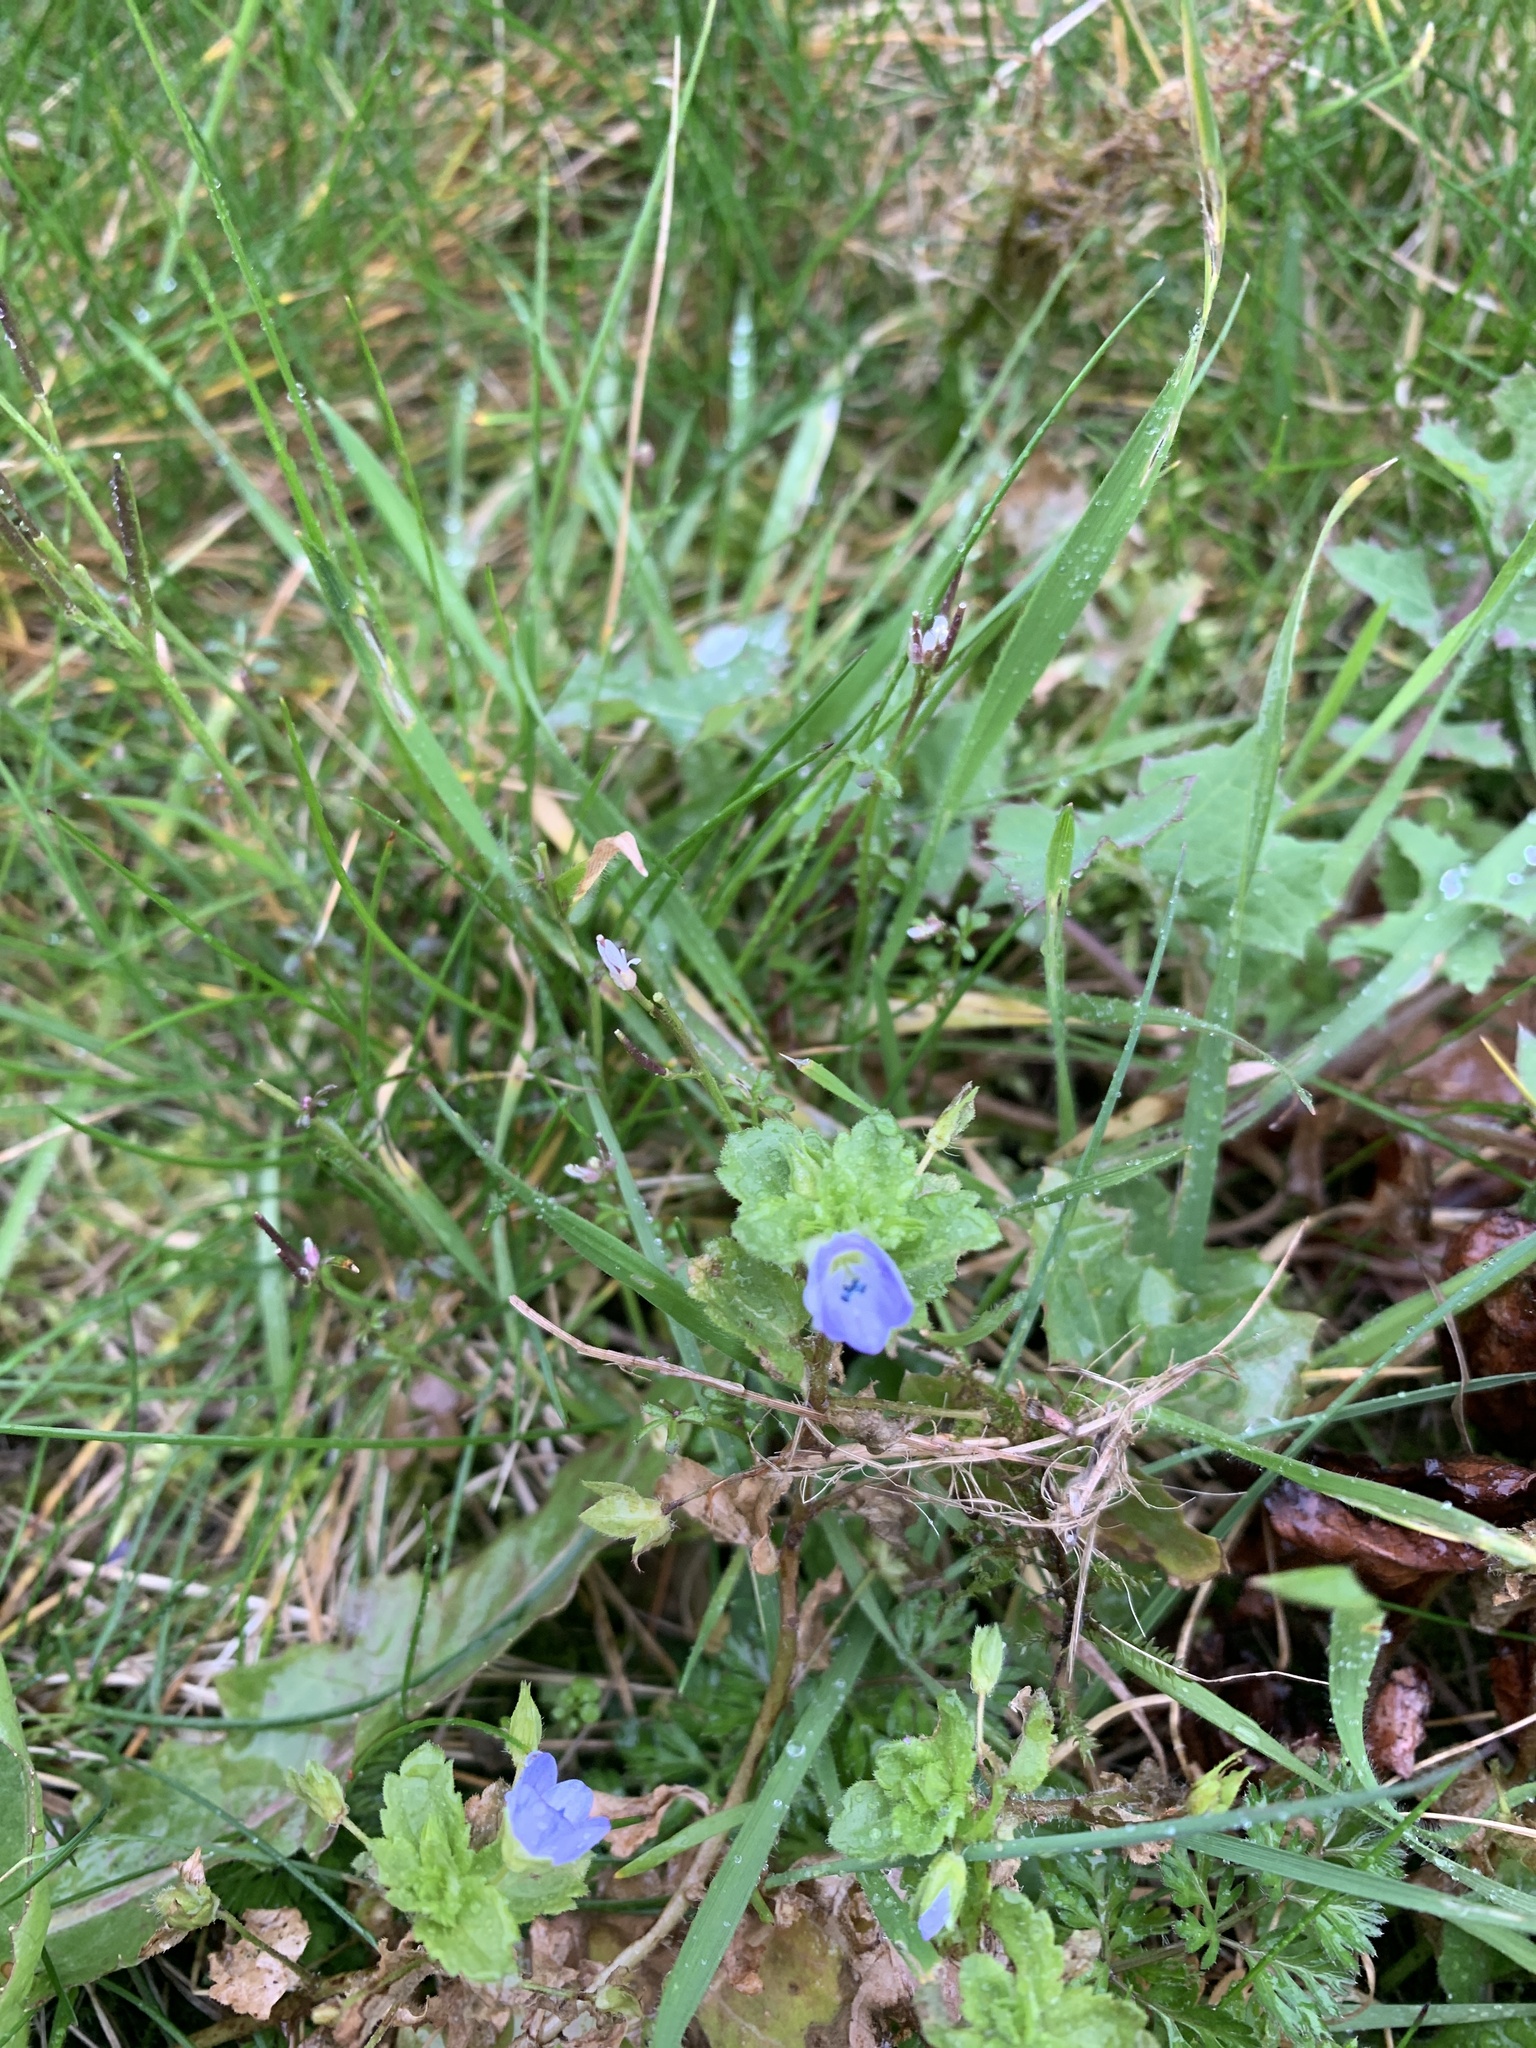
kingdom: Plantae
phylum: Tracheophyta
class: Magnoliopsida
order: Lamiales
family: Plantaginaceae
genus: Veronica
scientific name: Veronica persica
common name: Common field-speedwell
